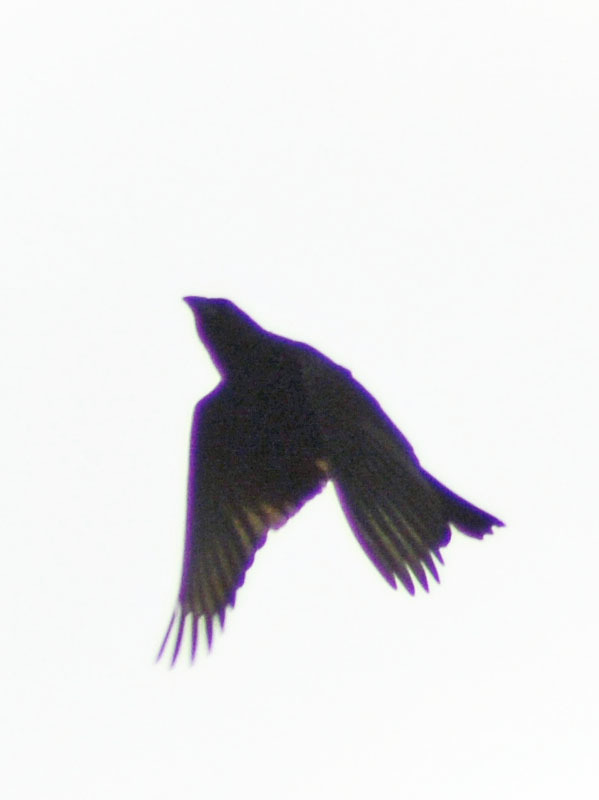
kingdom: Animalia
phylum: Chordata
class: Aves
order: Passeriformes
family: Icteridae
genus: Dives
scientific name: Dives dives
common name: Melodious blackbird
